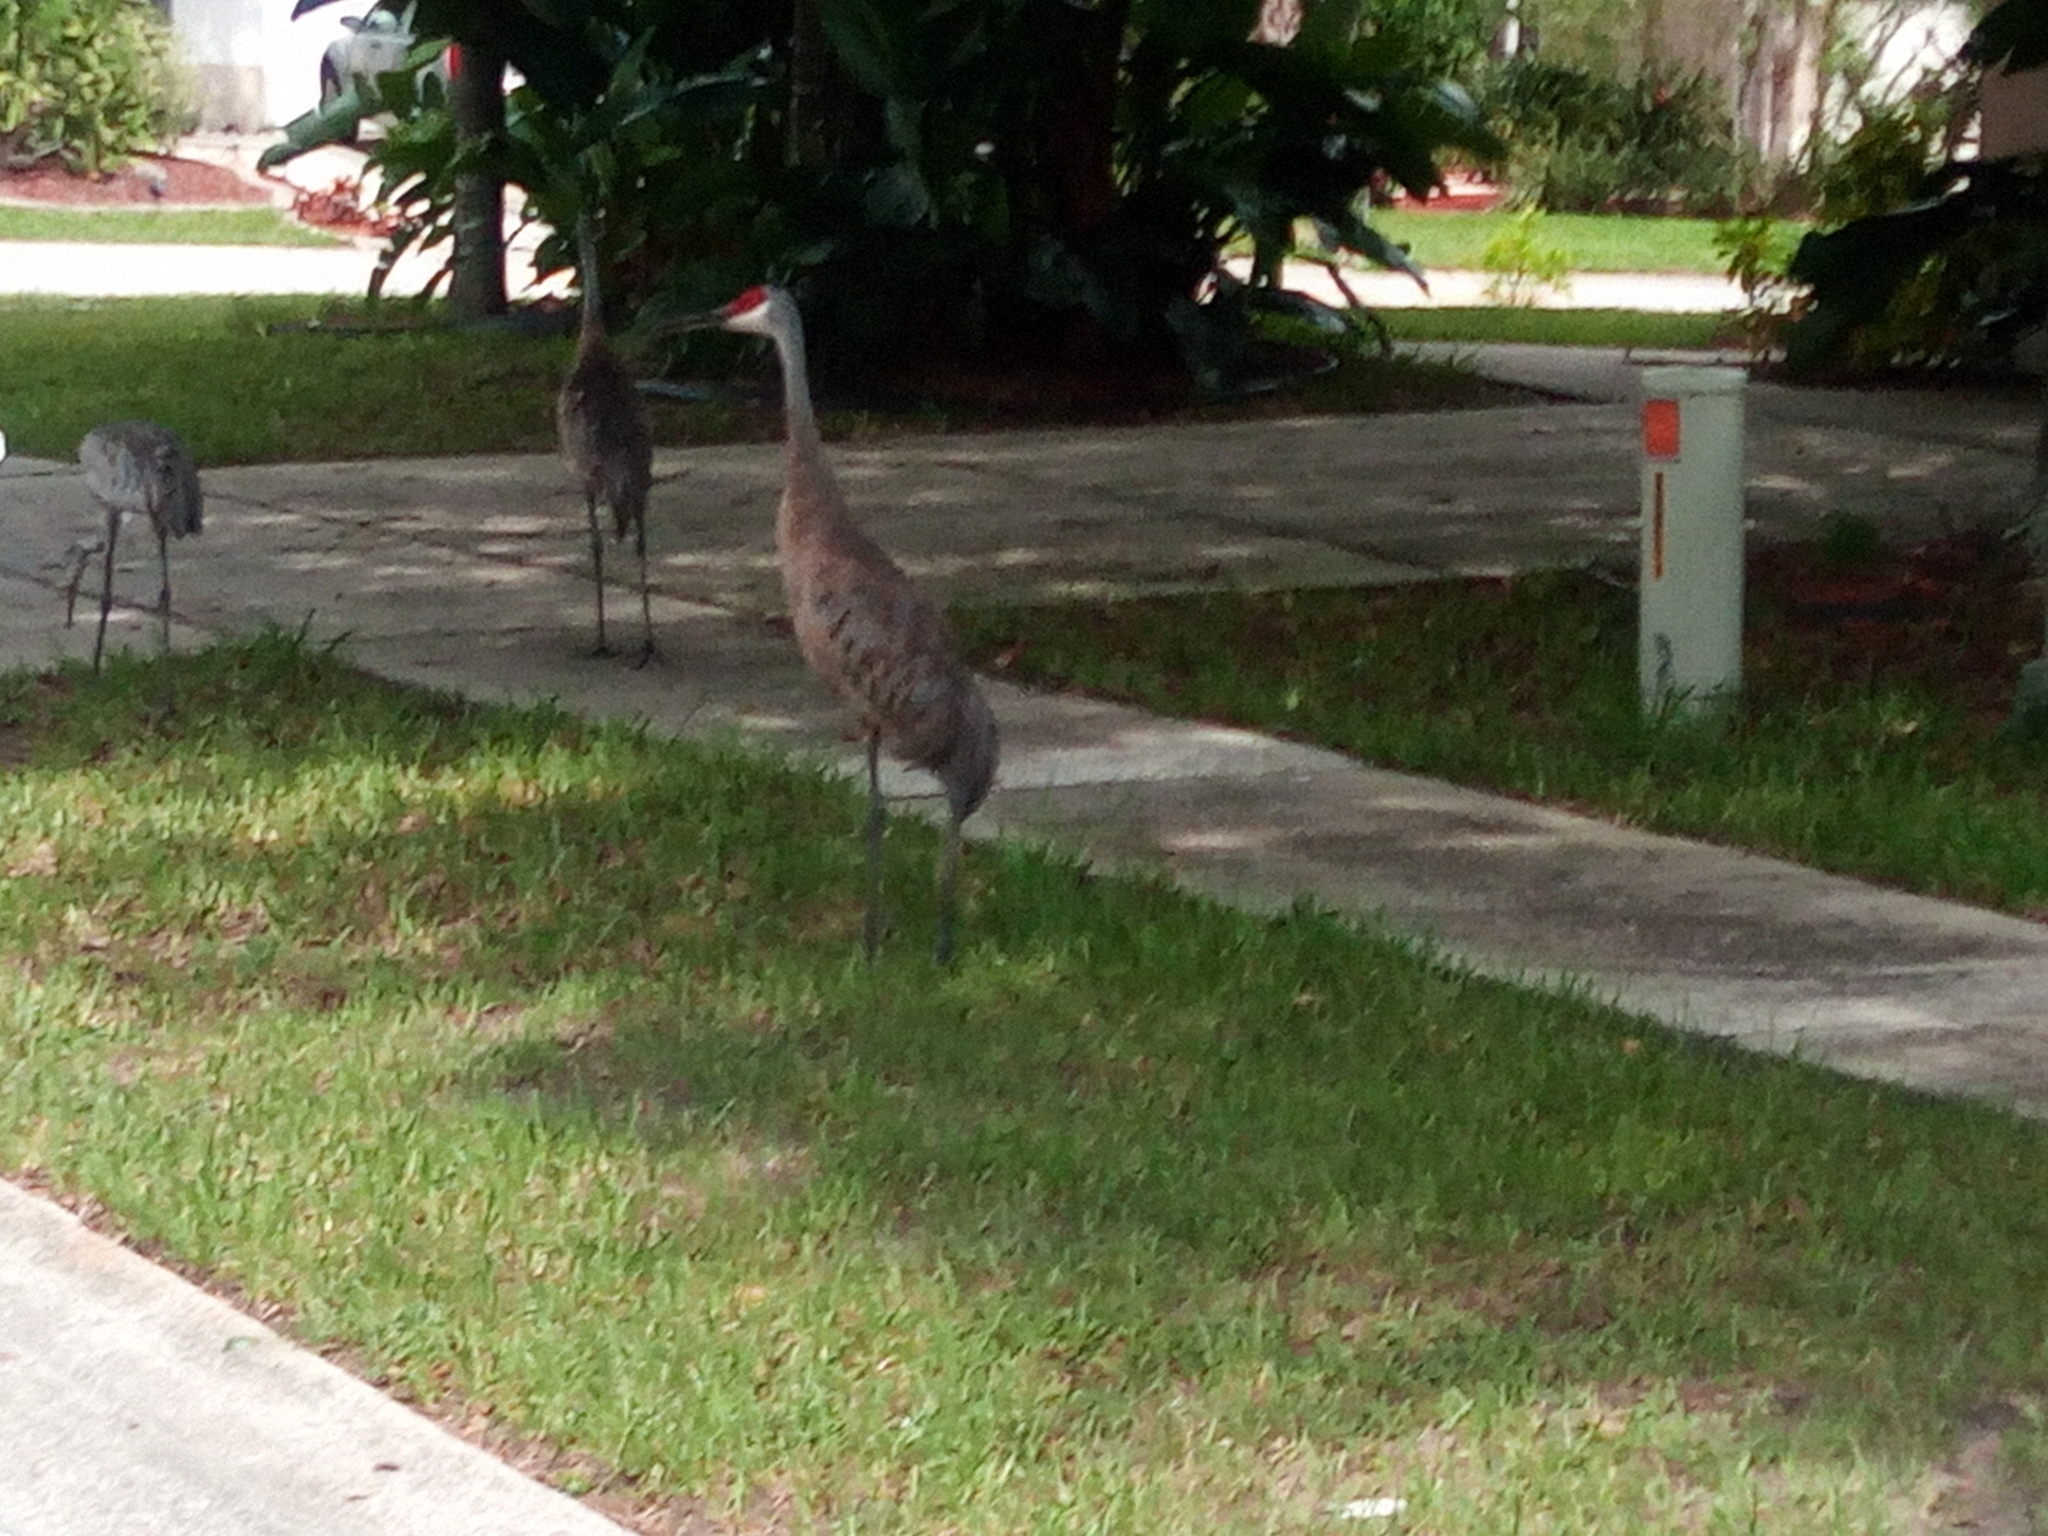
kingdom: Animalia
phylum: Chordata
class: Aves
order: Gruiformes
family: Gruidae
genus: Grus
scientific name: Grus canadensis
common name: Sandhill crane
